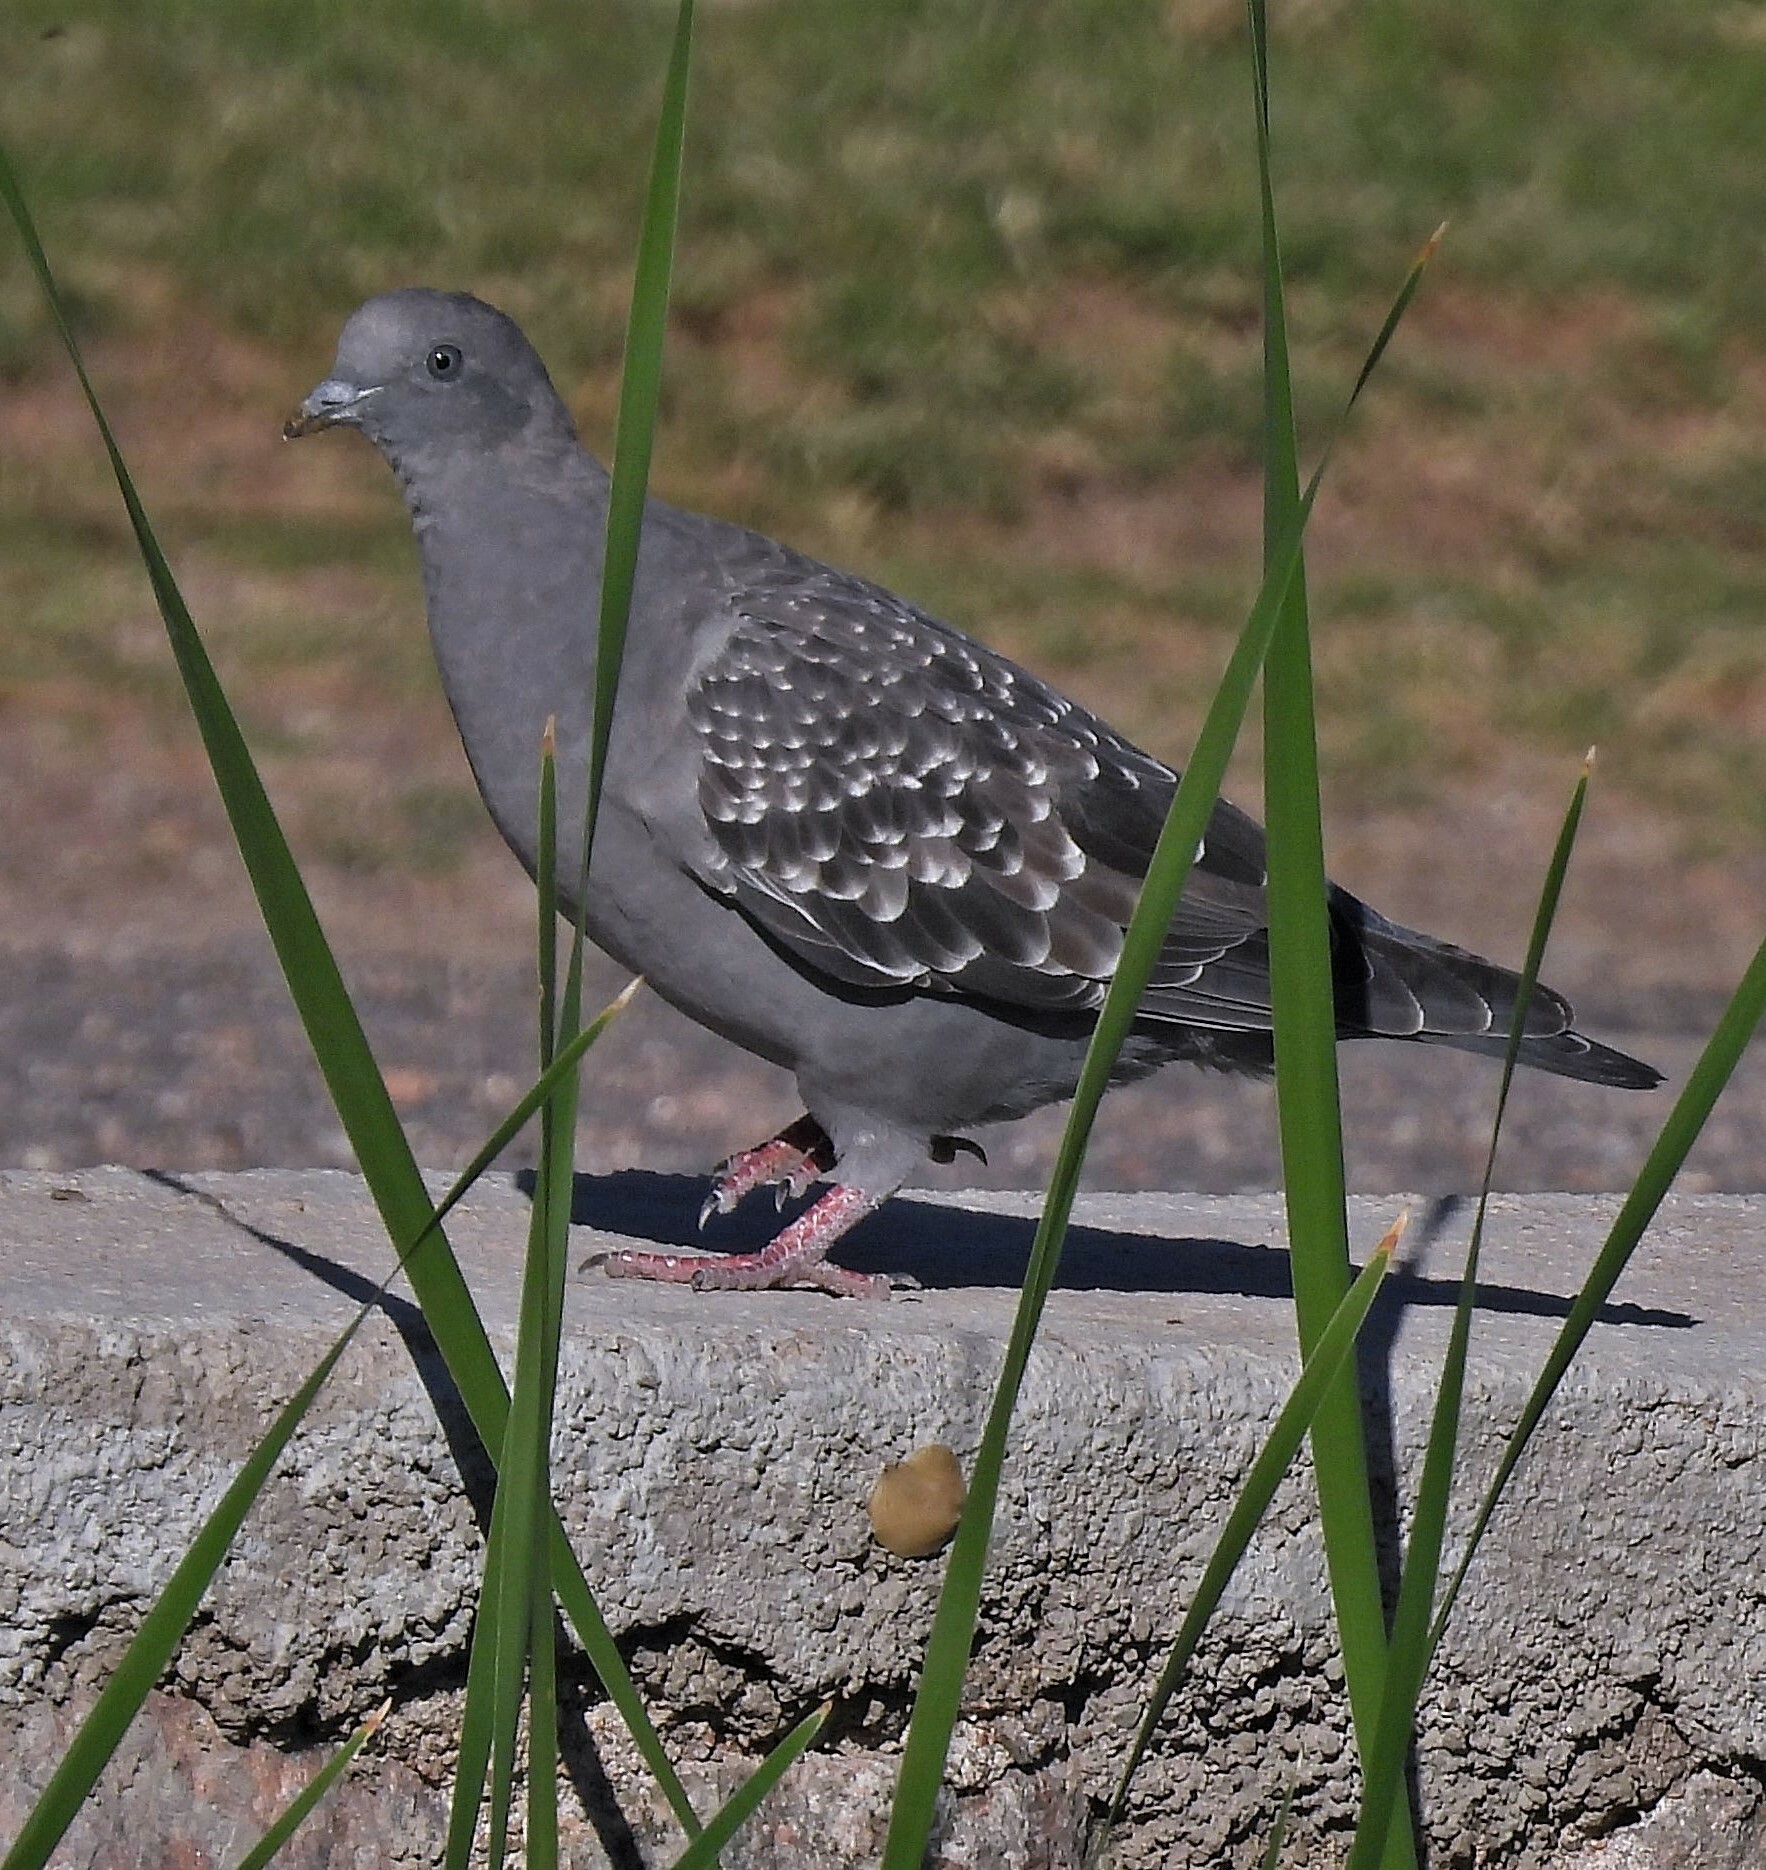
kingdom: Animalia
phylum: Chordata
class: Aves
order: Columbiformes
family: Columbidae
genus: Patagioenas
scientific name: Patagioenas maculosa
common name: Spot-winged pigeon
